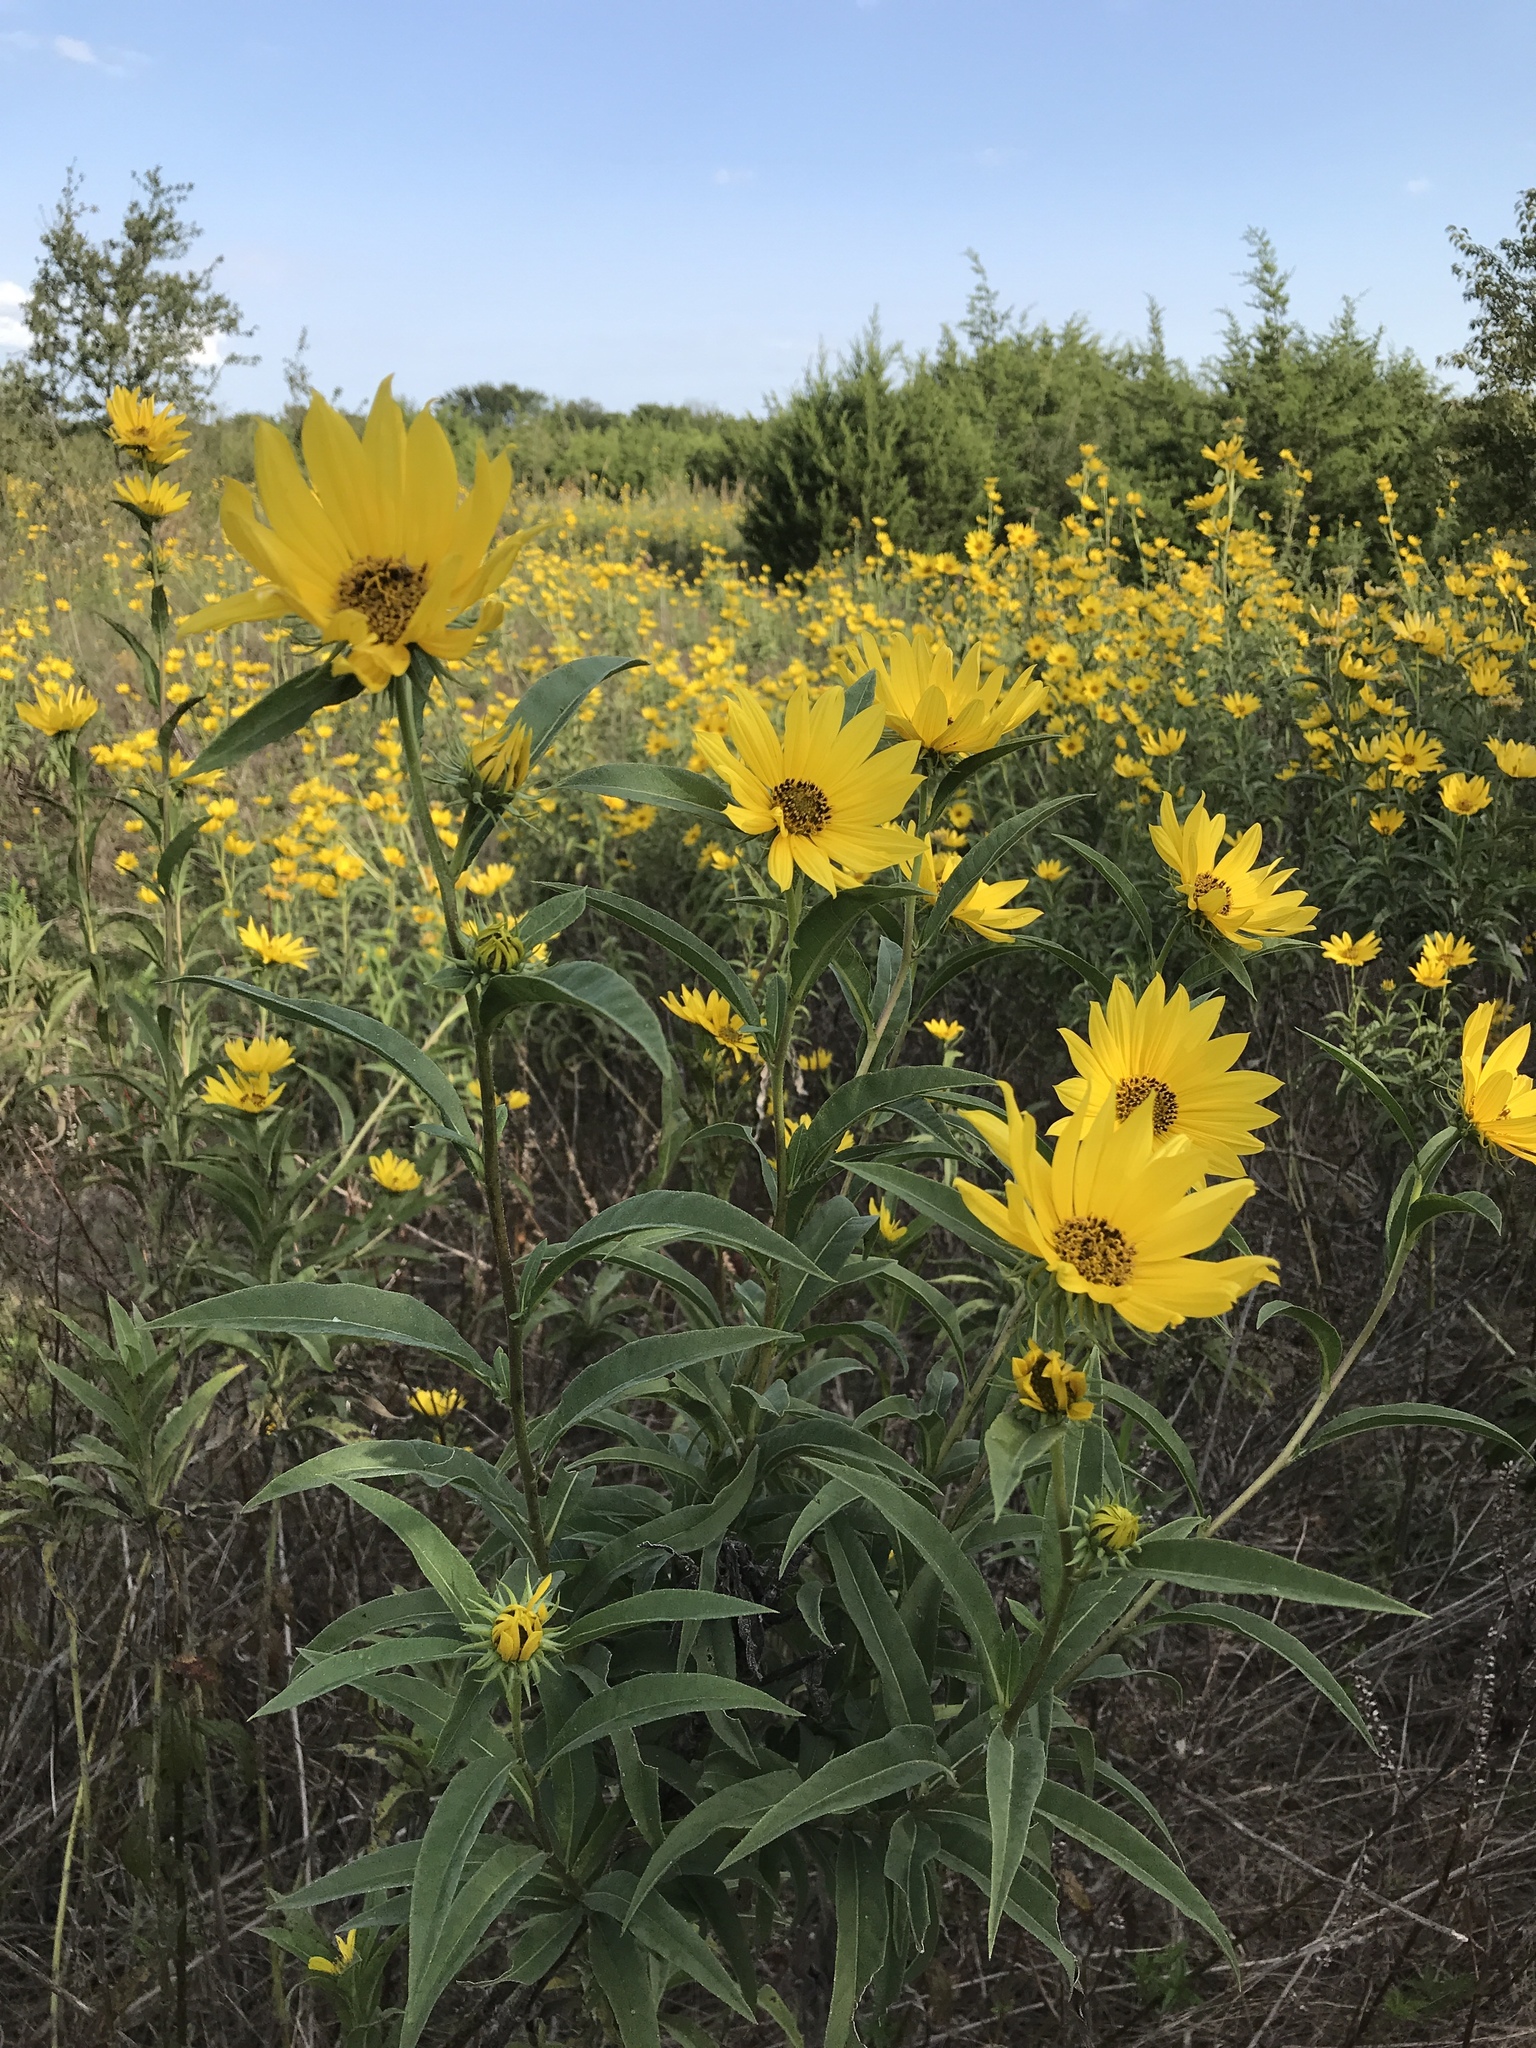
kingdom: Plantae
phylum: Tracheophyta
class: Magnoliopsida
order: Asterales
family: Asteraceae
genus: Helianthus
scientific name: Helianthus maximiliani
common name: Maximilian's sunflower
